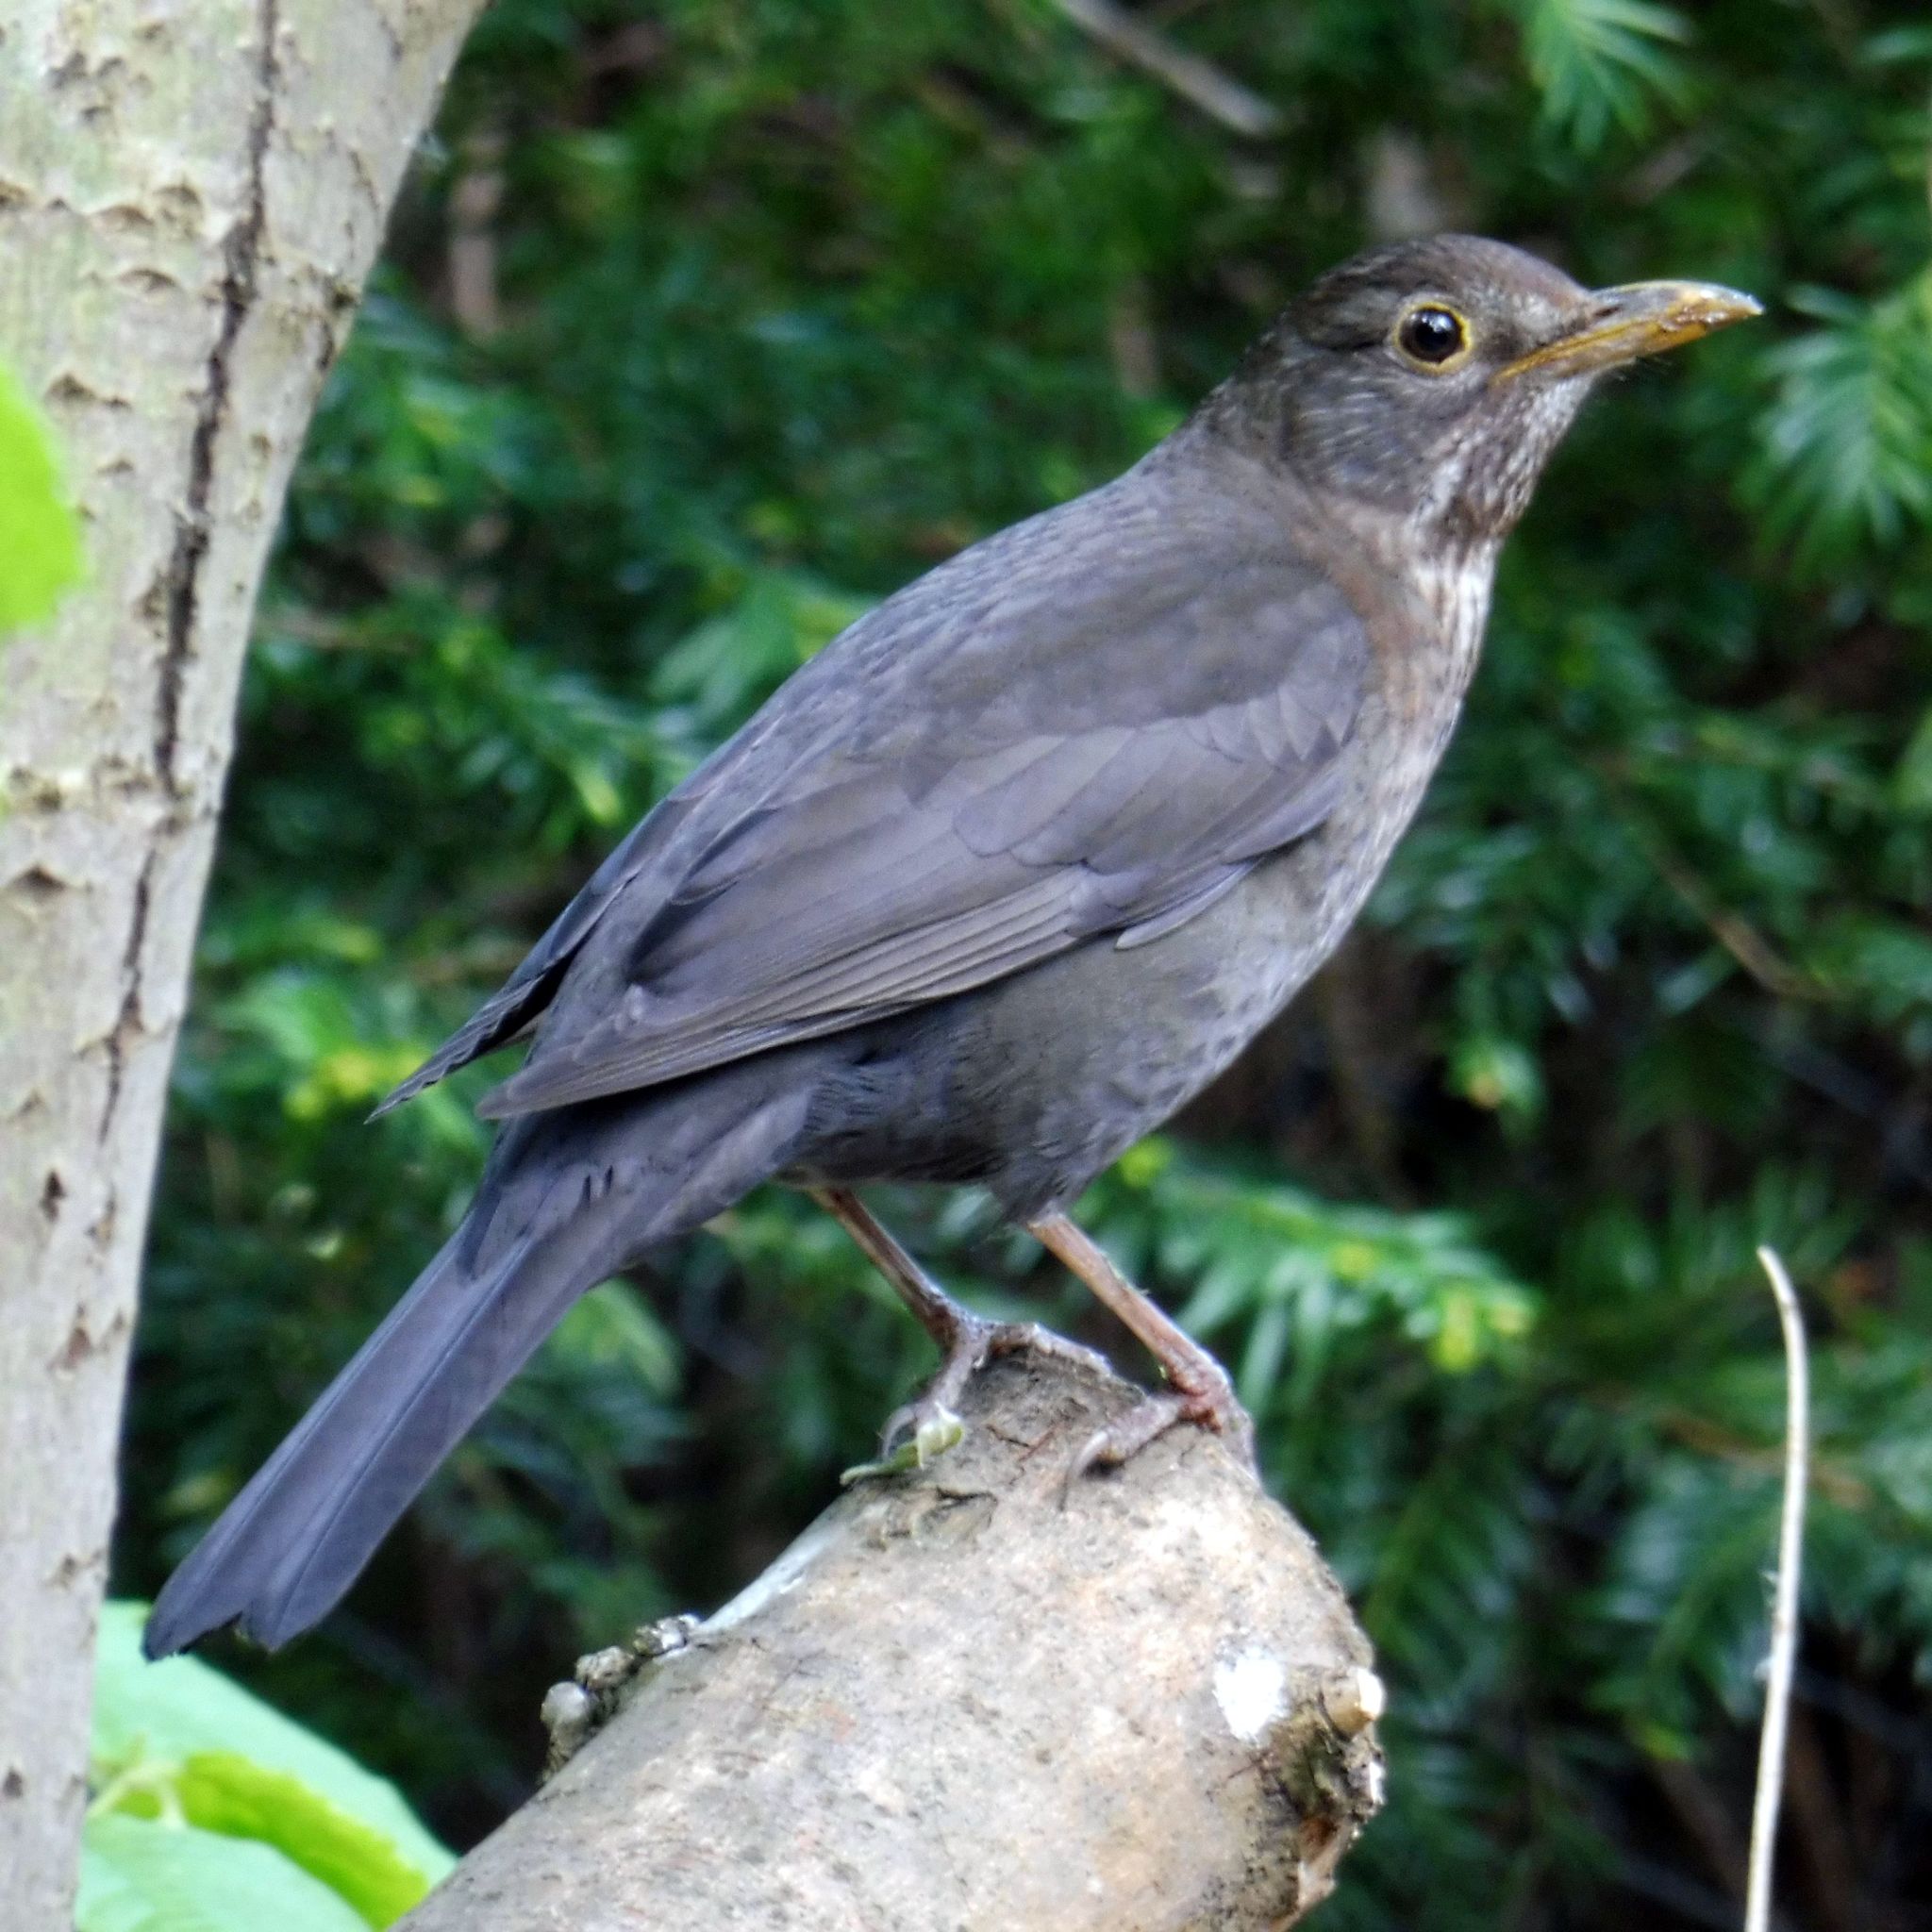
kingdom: Animalia
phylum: Chordata
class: Aves
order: Passeriformes
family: Turdidae
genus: Turdus
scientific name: Turdus merula
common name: Common blackbird
